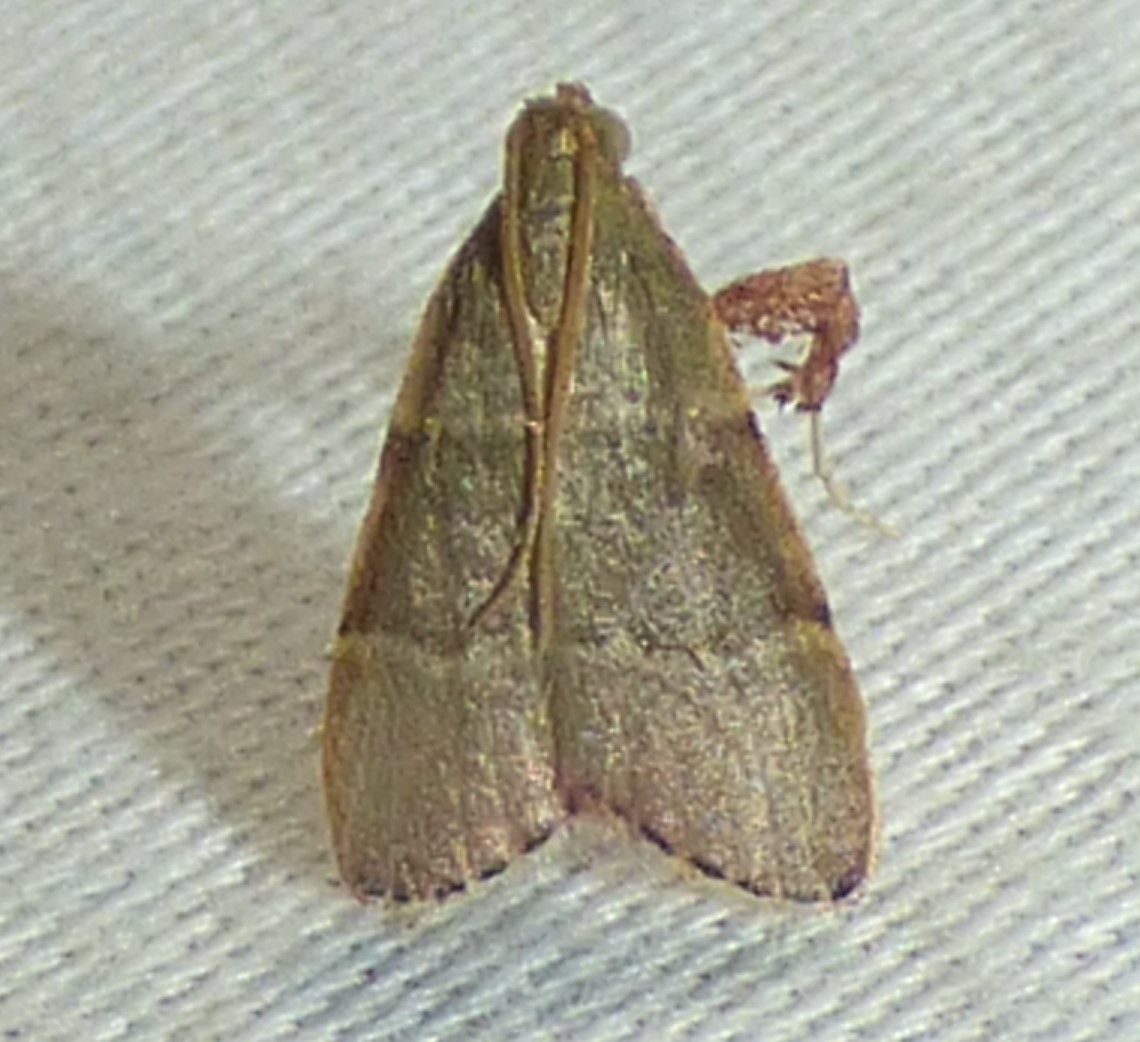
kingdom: Animalia
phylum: Arthropoda
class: Insecta
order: Lepidoptera
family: Pyralidae
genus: Basacallis
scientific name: Basacallis tarachodes
